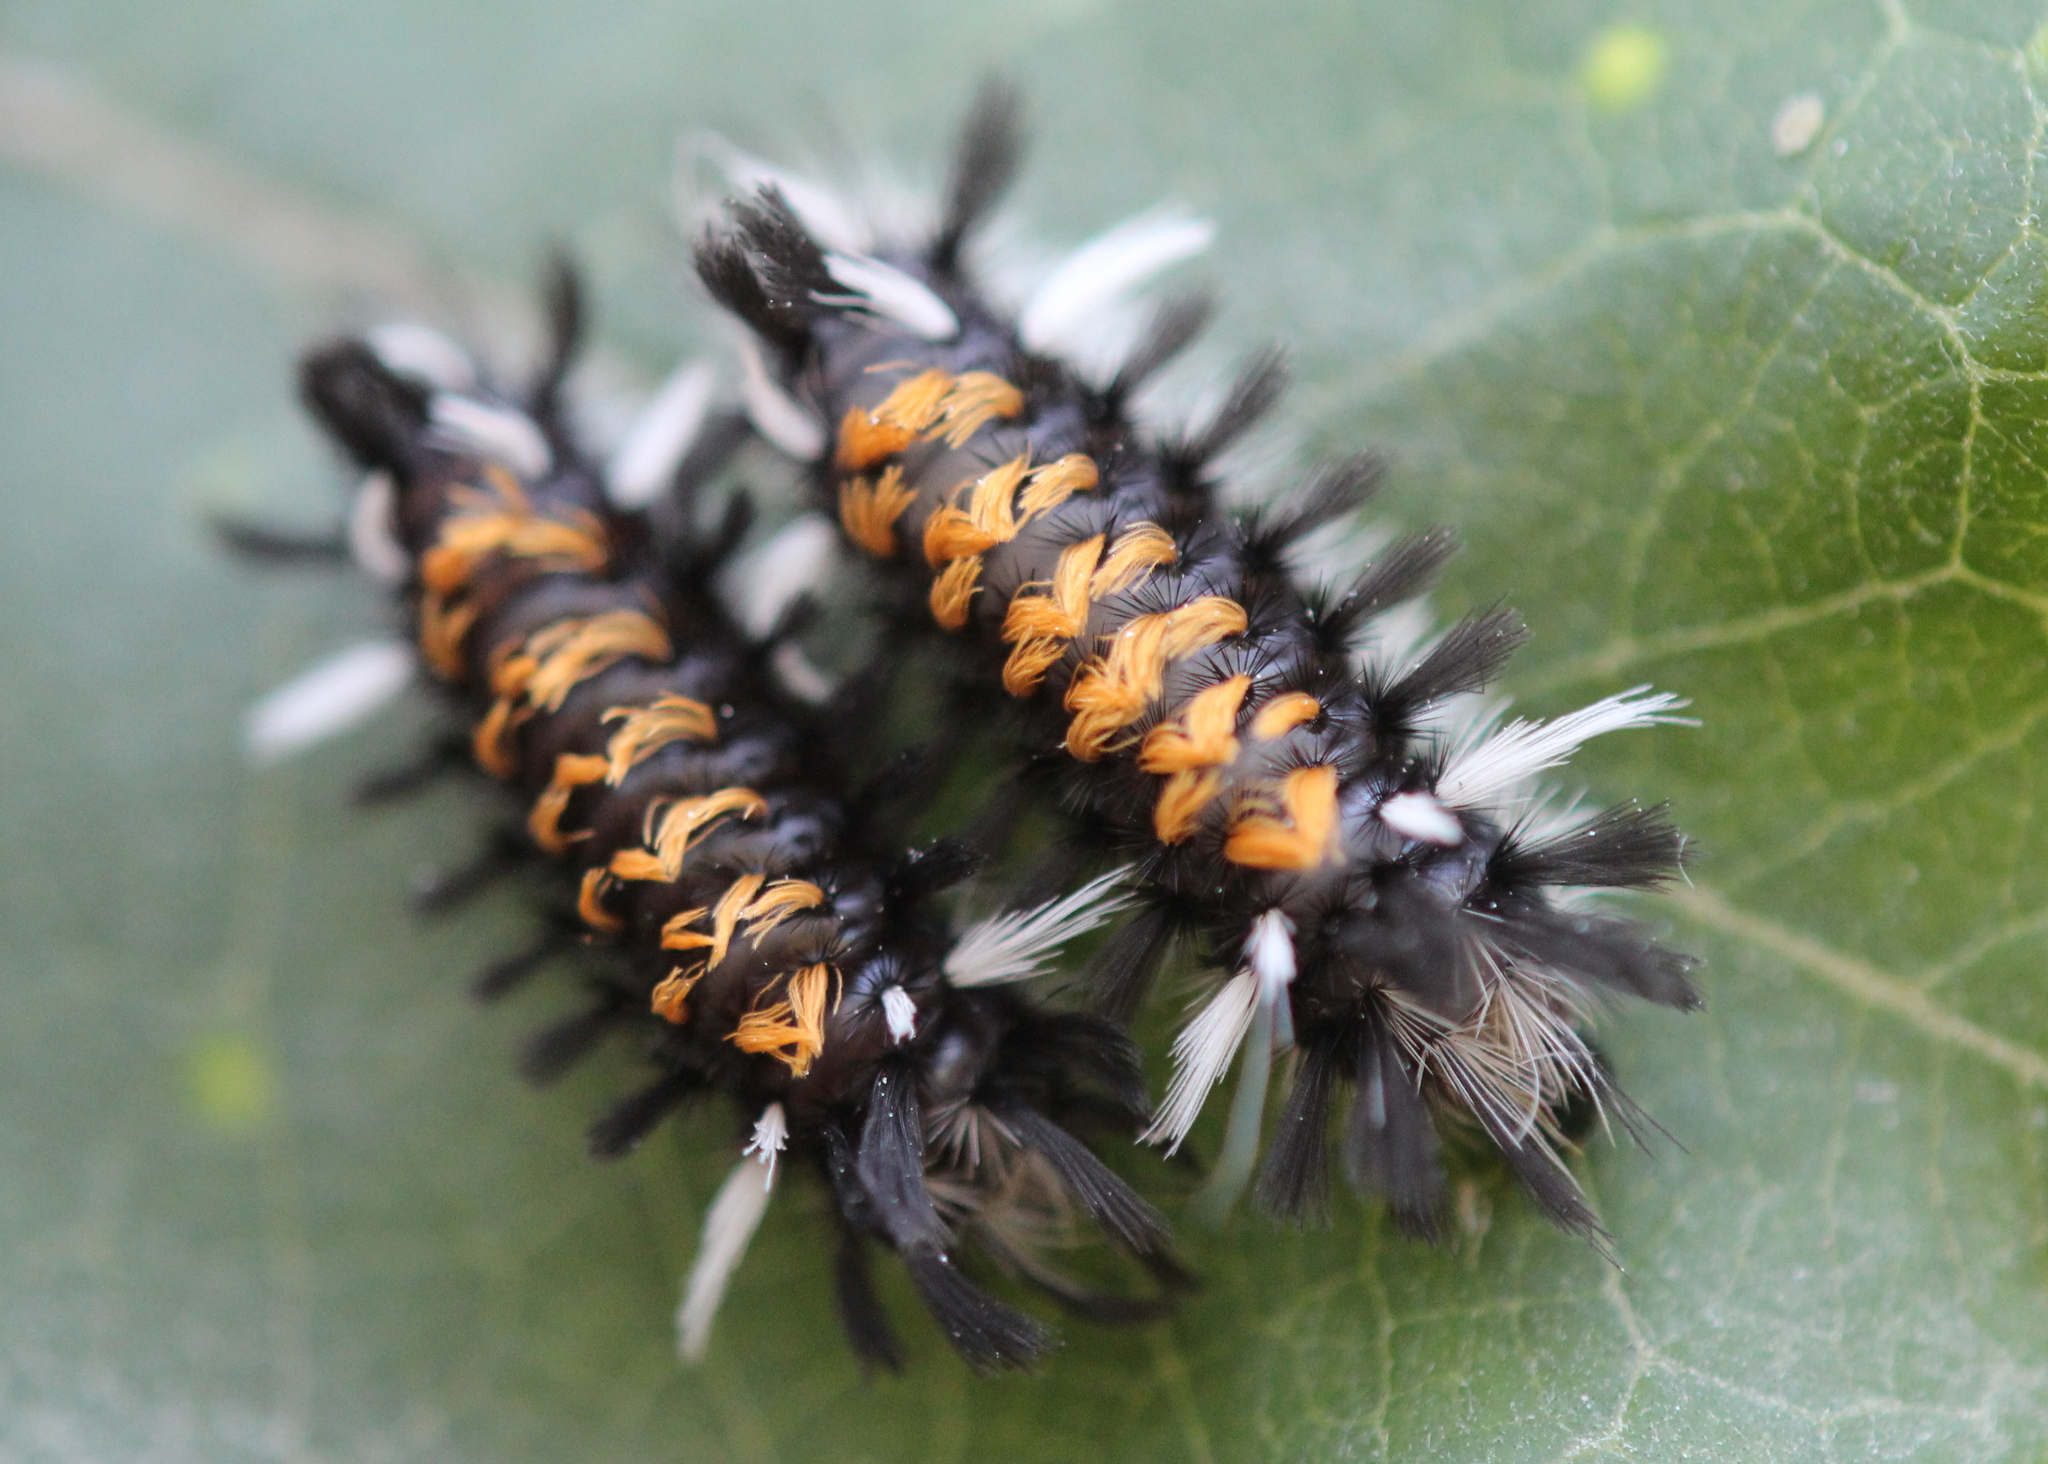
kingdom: Animalia
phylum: Arthropoda
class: Insecta
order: Lepidoptera
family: Erebidae
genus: Euchaetes
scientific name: Euchaetes egle
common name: Milkweed tussock moth
